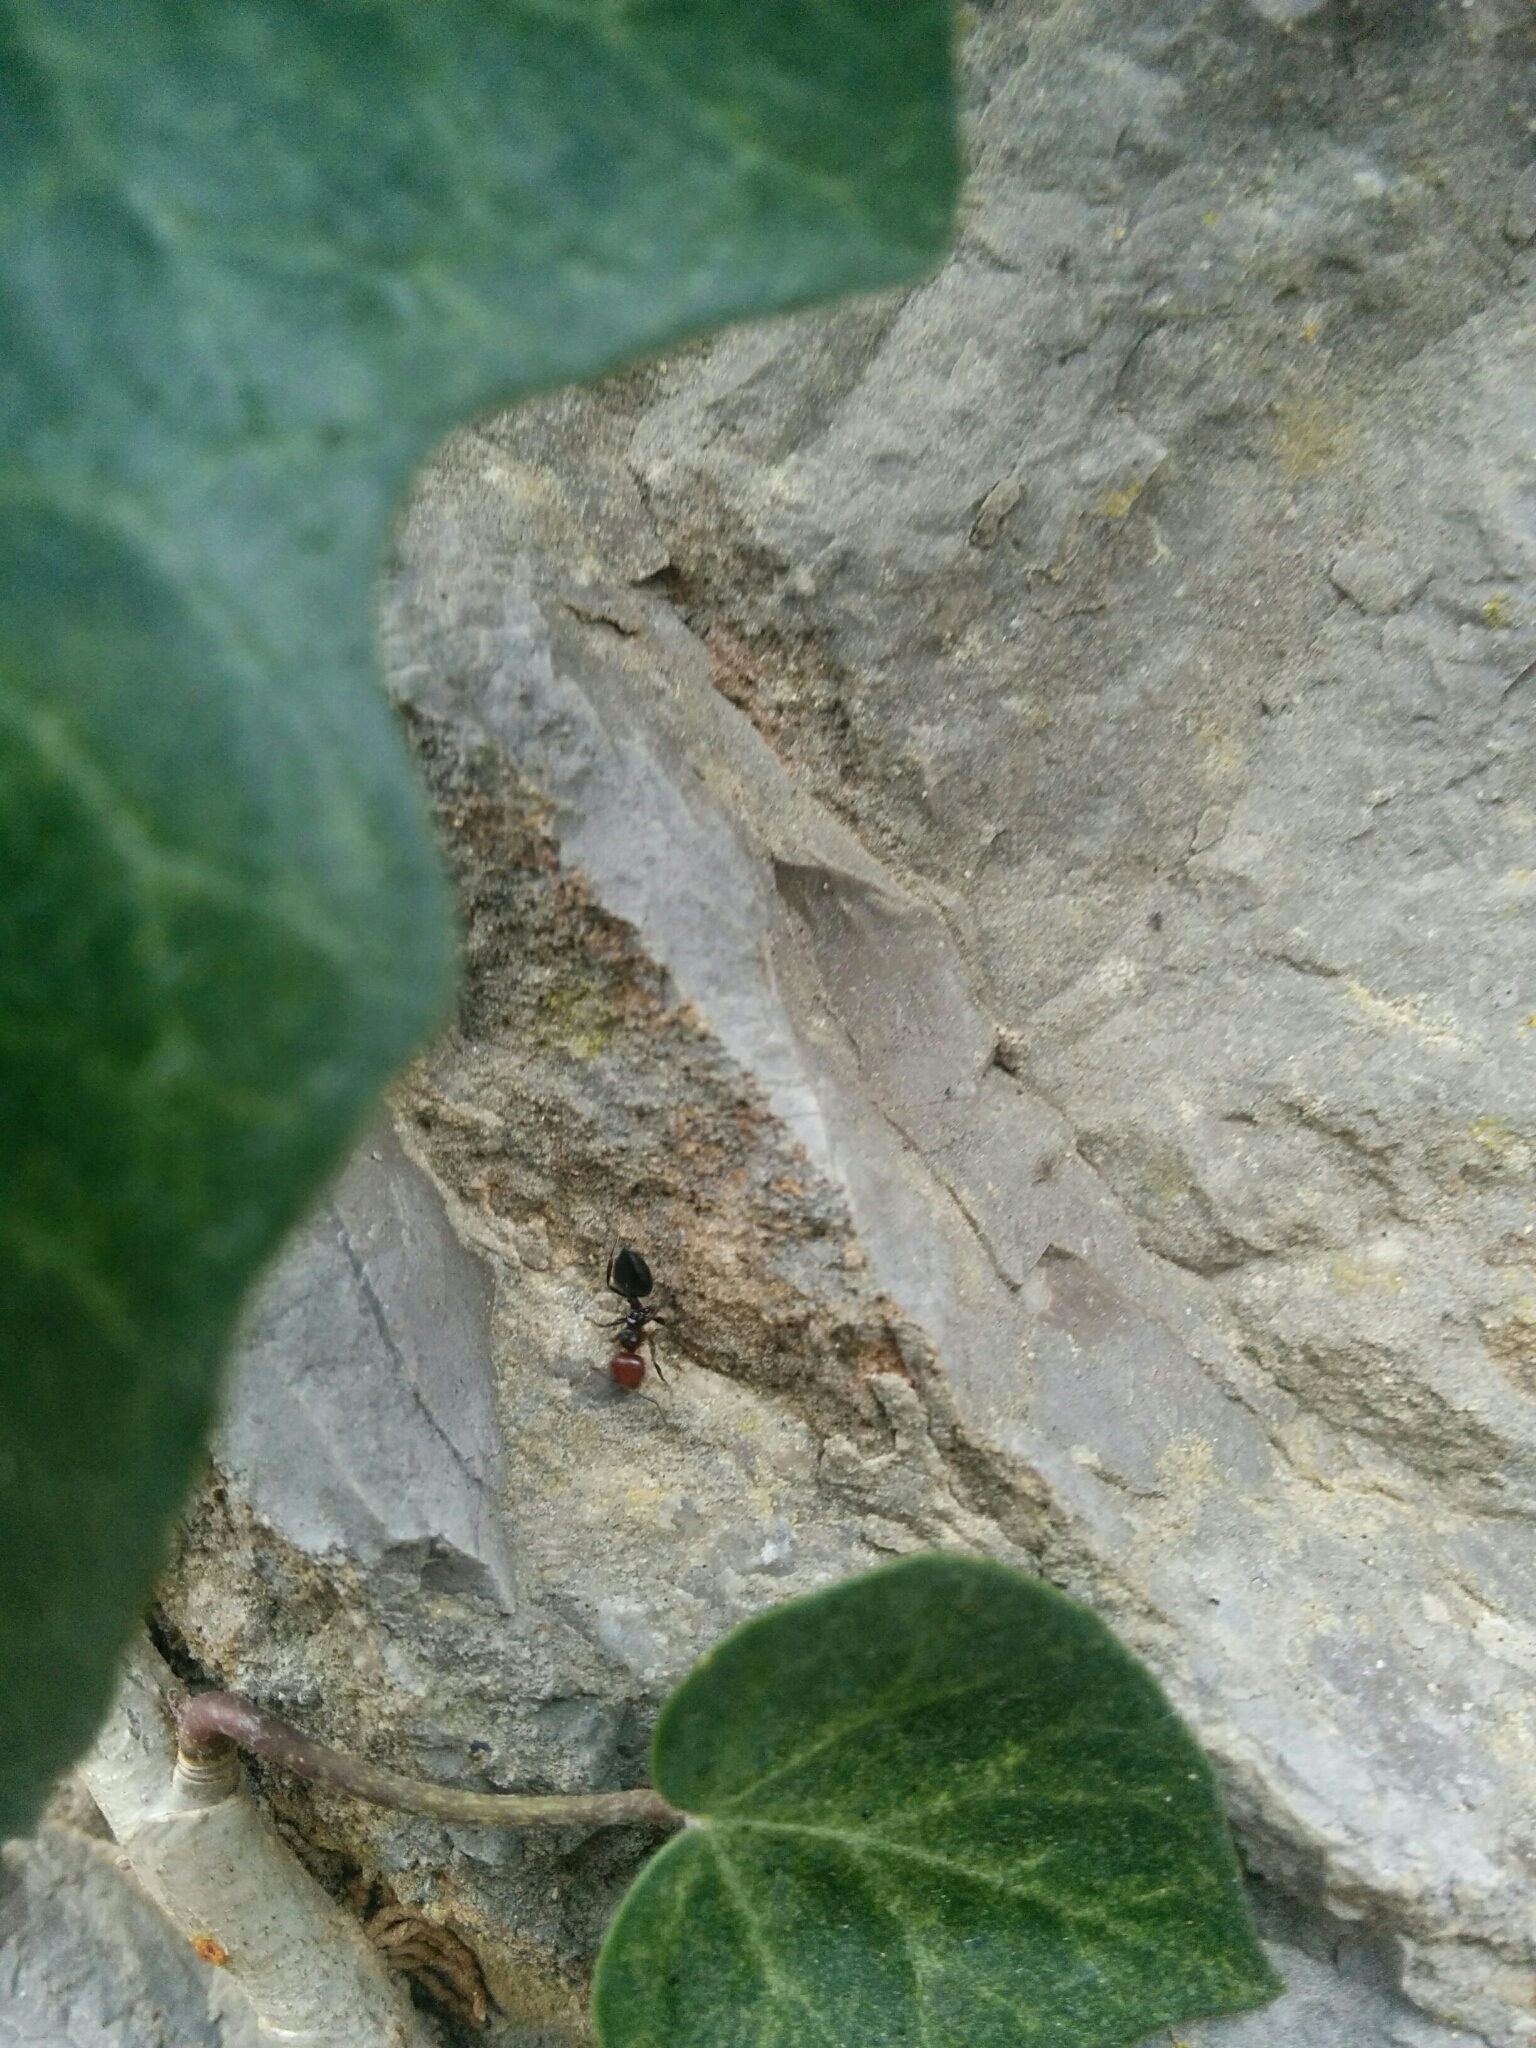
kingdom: Animalia
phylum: Arthropoda
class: Insecta
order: Hymenoptera
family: Formicidae
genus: Crematogaster
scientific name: Crematogaster scutellaris
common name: Fourmi du liège
